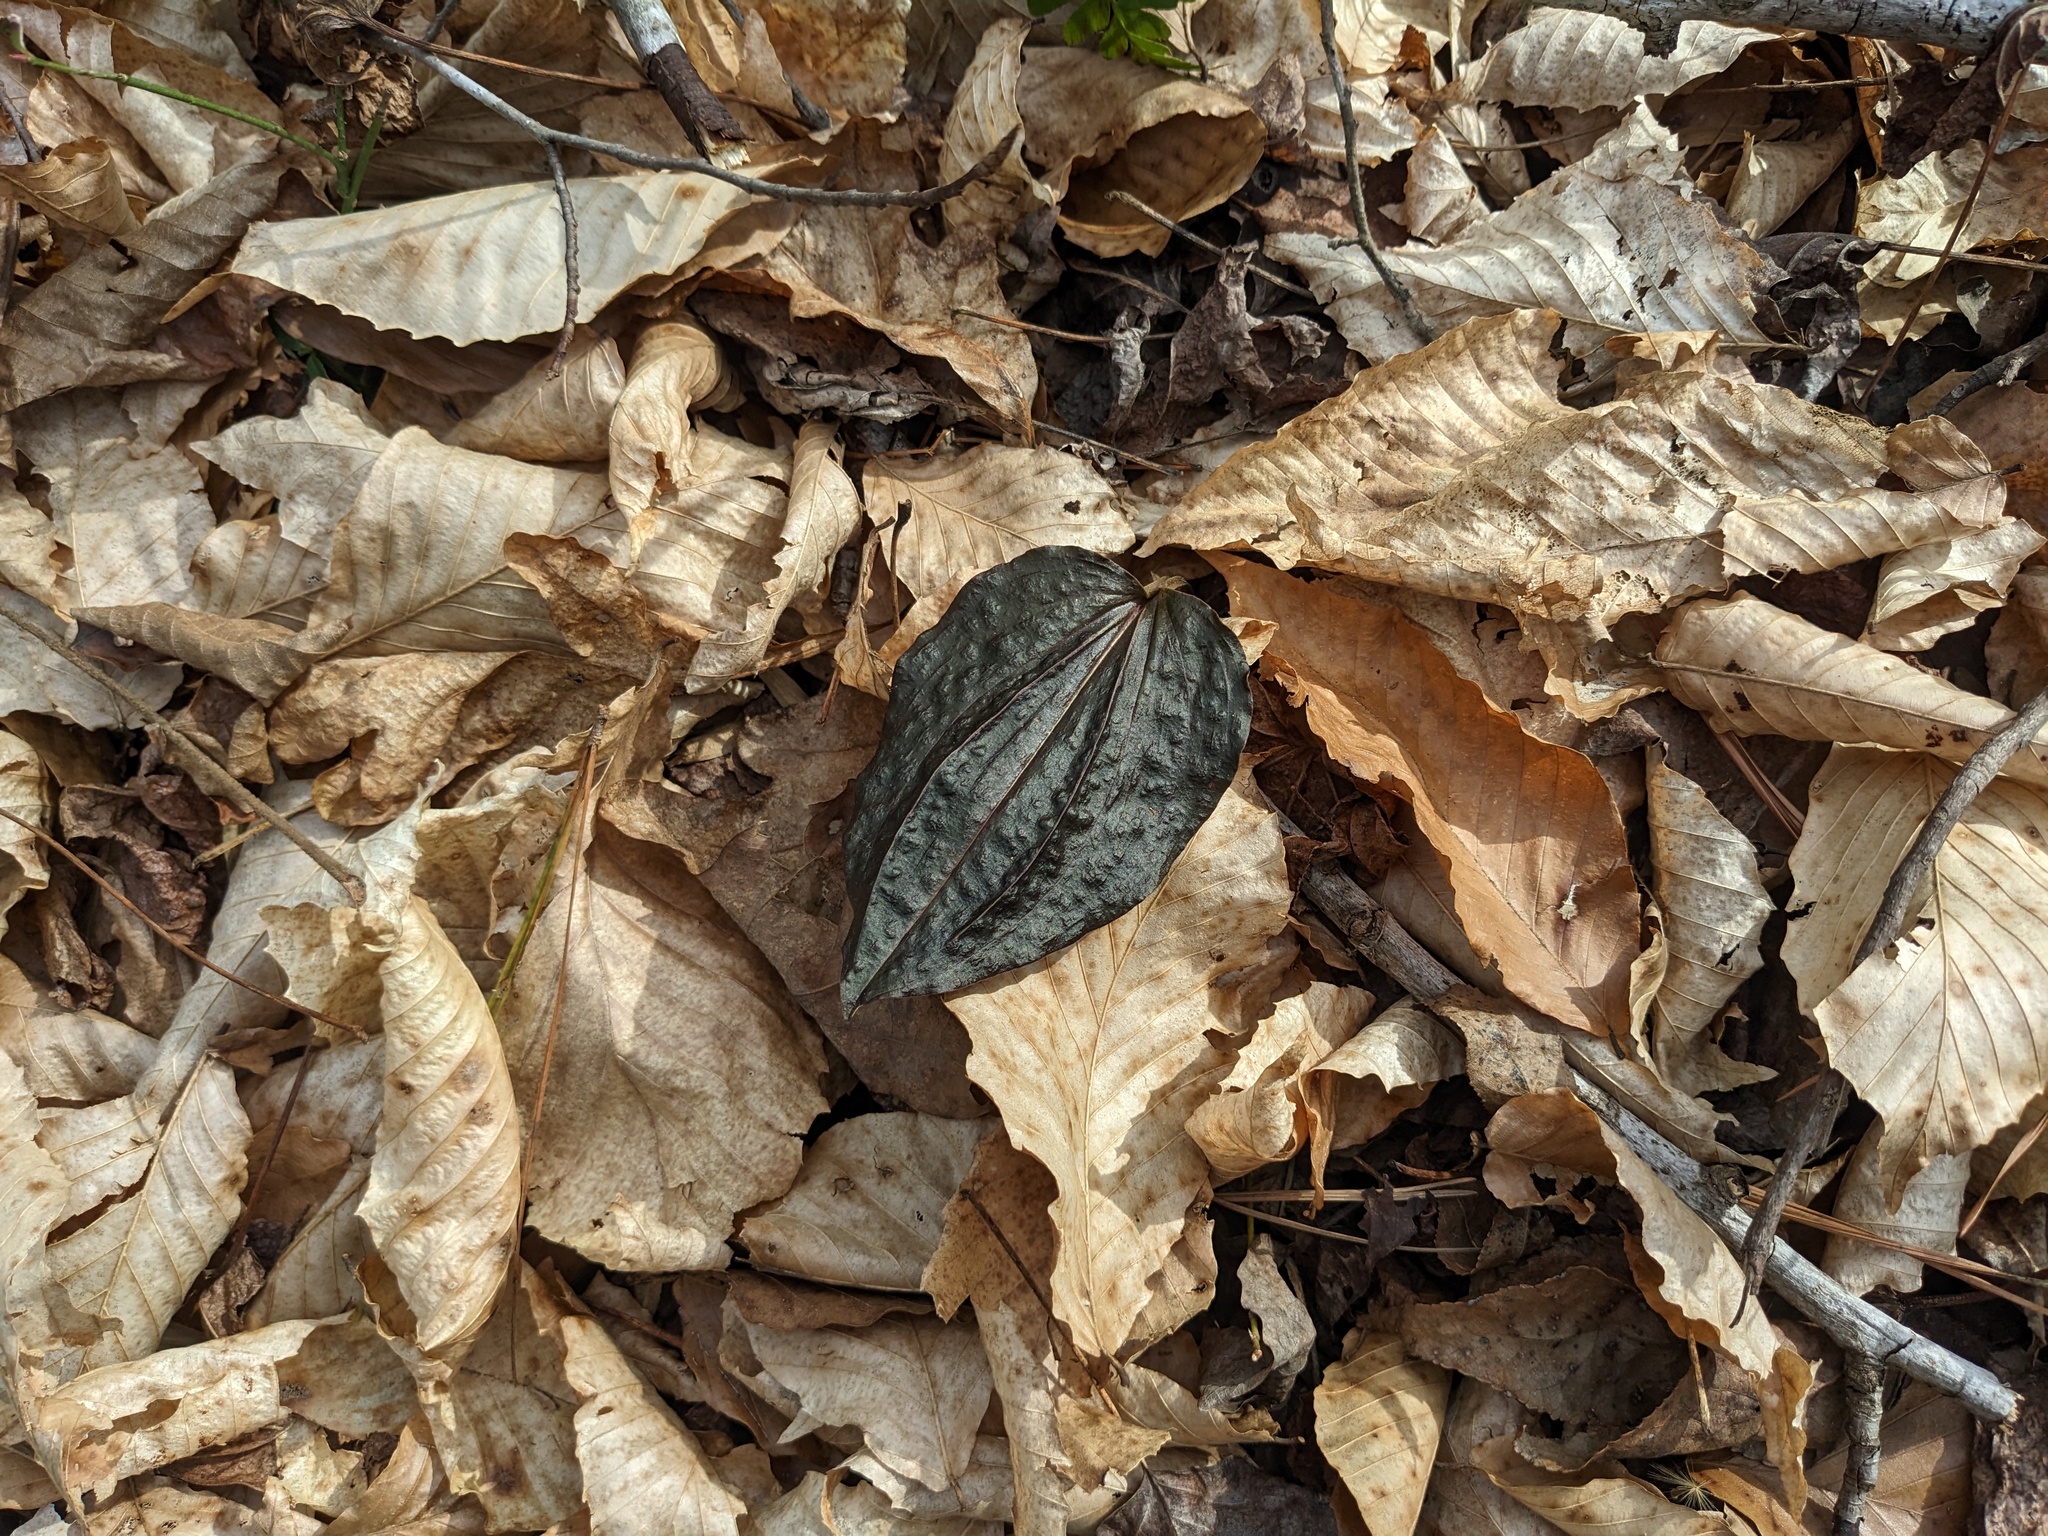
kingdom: Plantae
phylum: Tracheophyta
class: Liliopsida
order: Asparagales
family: Orchidaceae
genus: Tipularia
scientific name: Tipularia discolor
